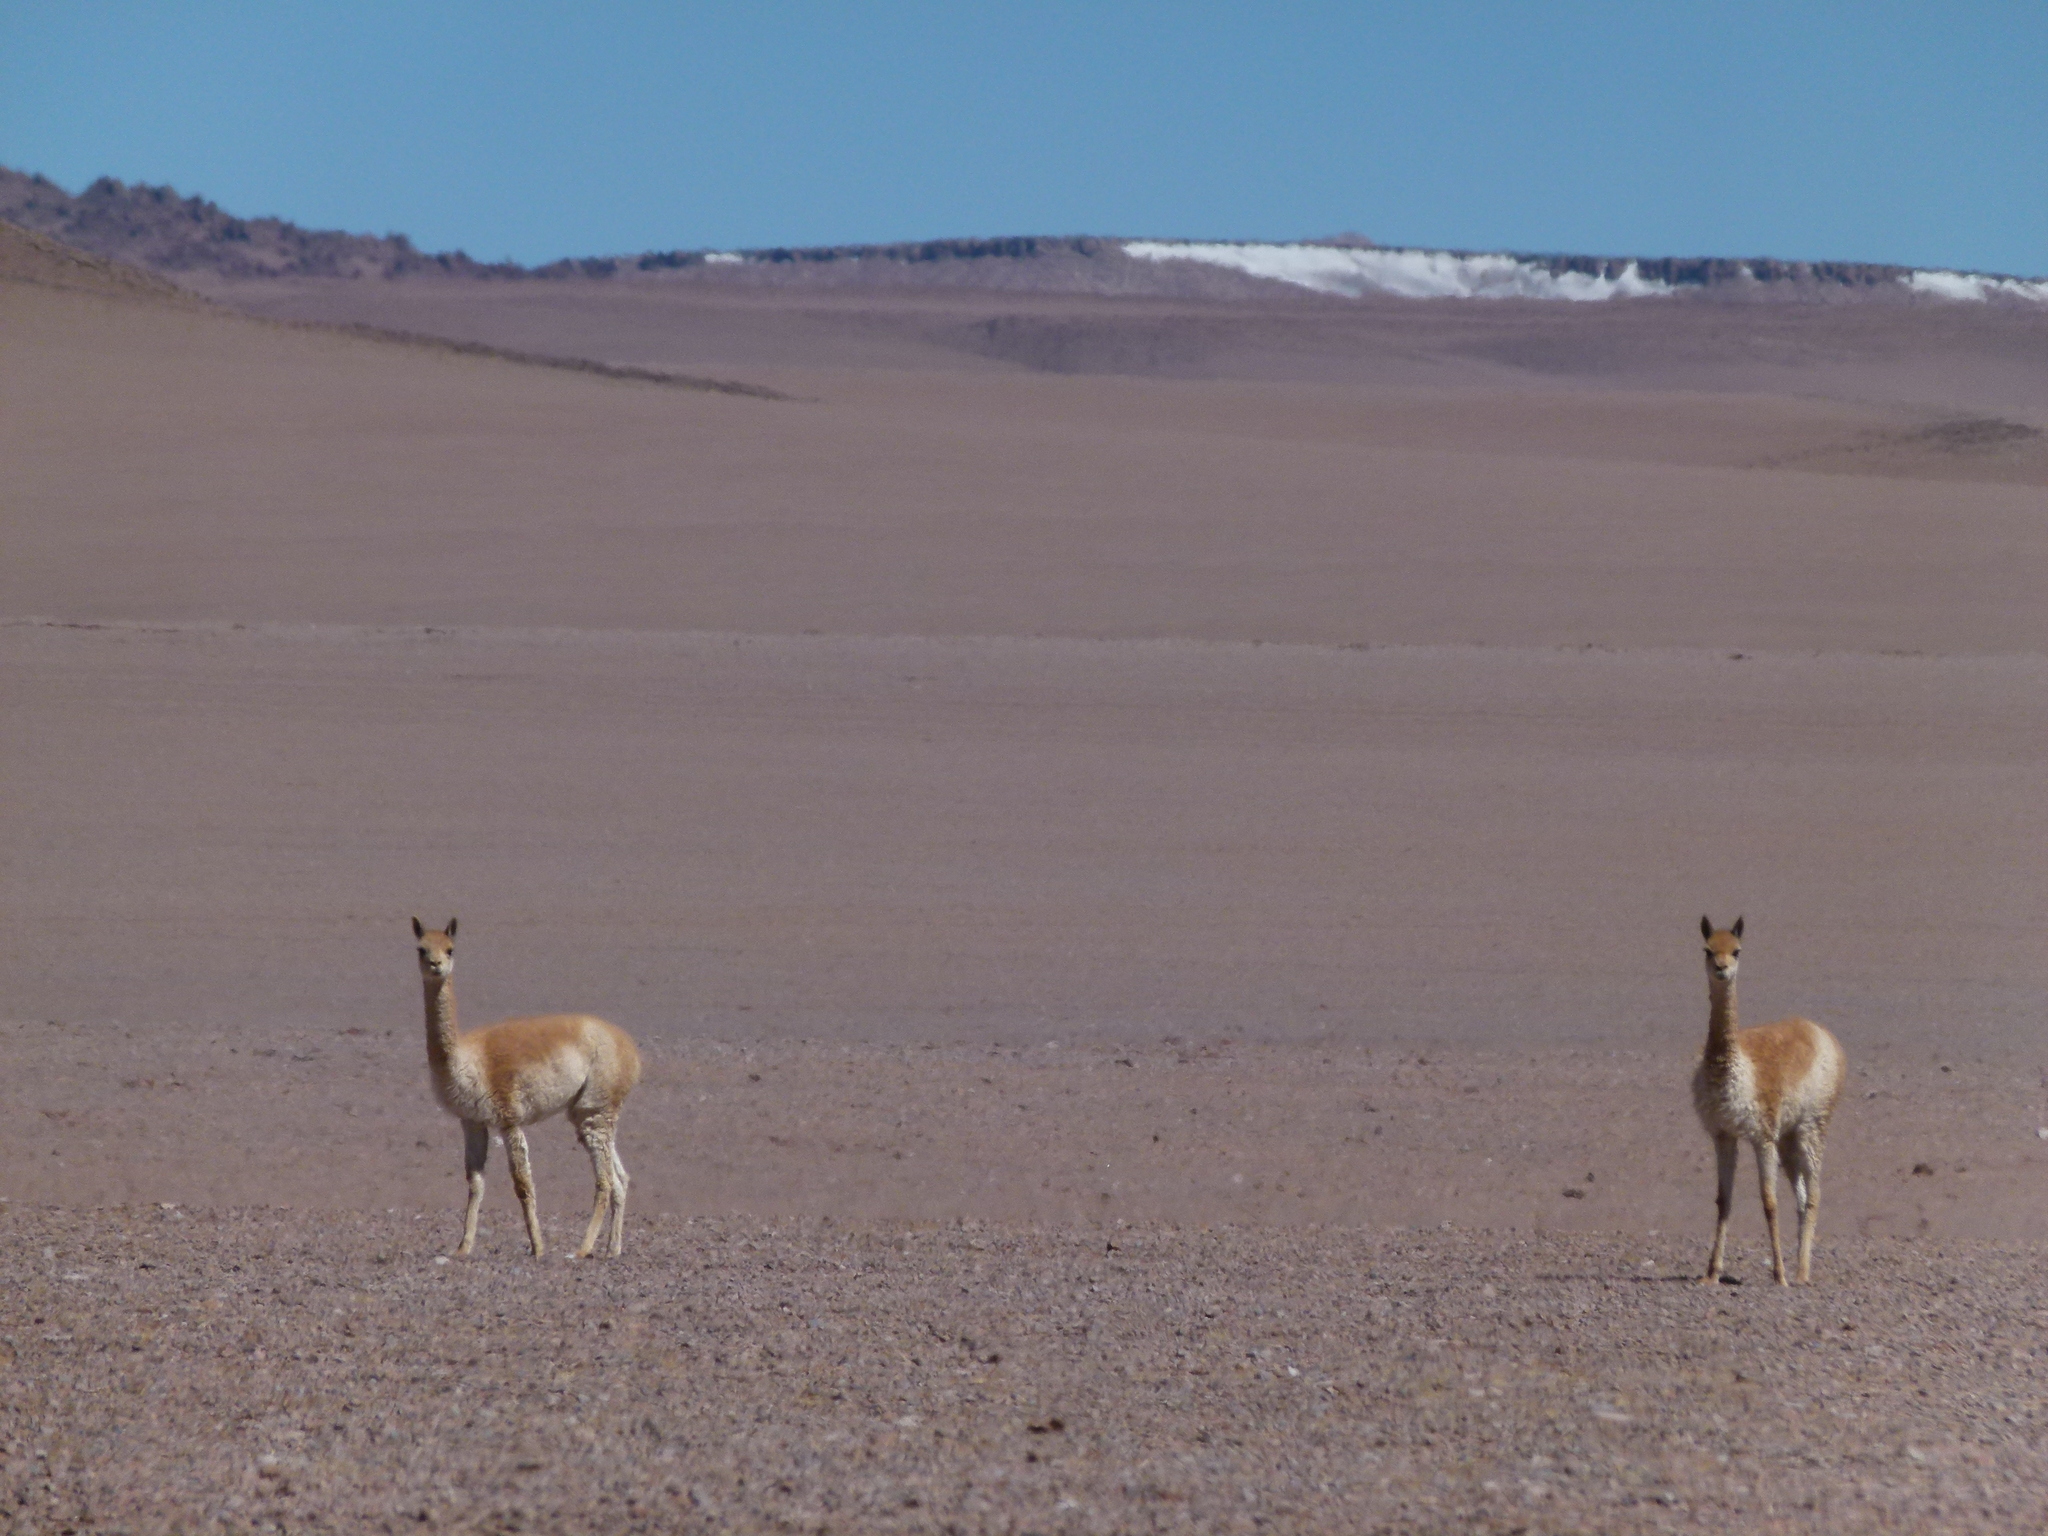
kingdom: Animalia
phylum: Chordata
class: Mammalia
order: Artiodactyla
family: Camelidae
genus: Vicugna
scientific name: Vicugna vicugna
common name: Vicugna
